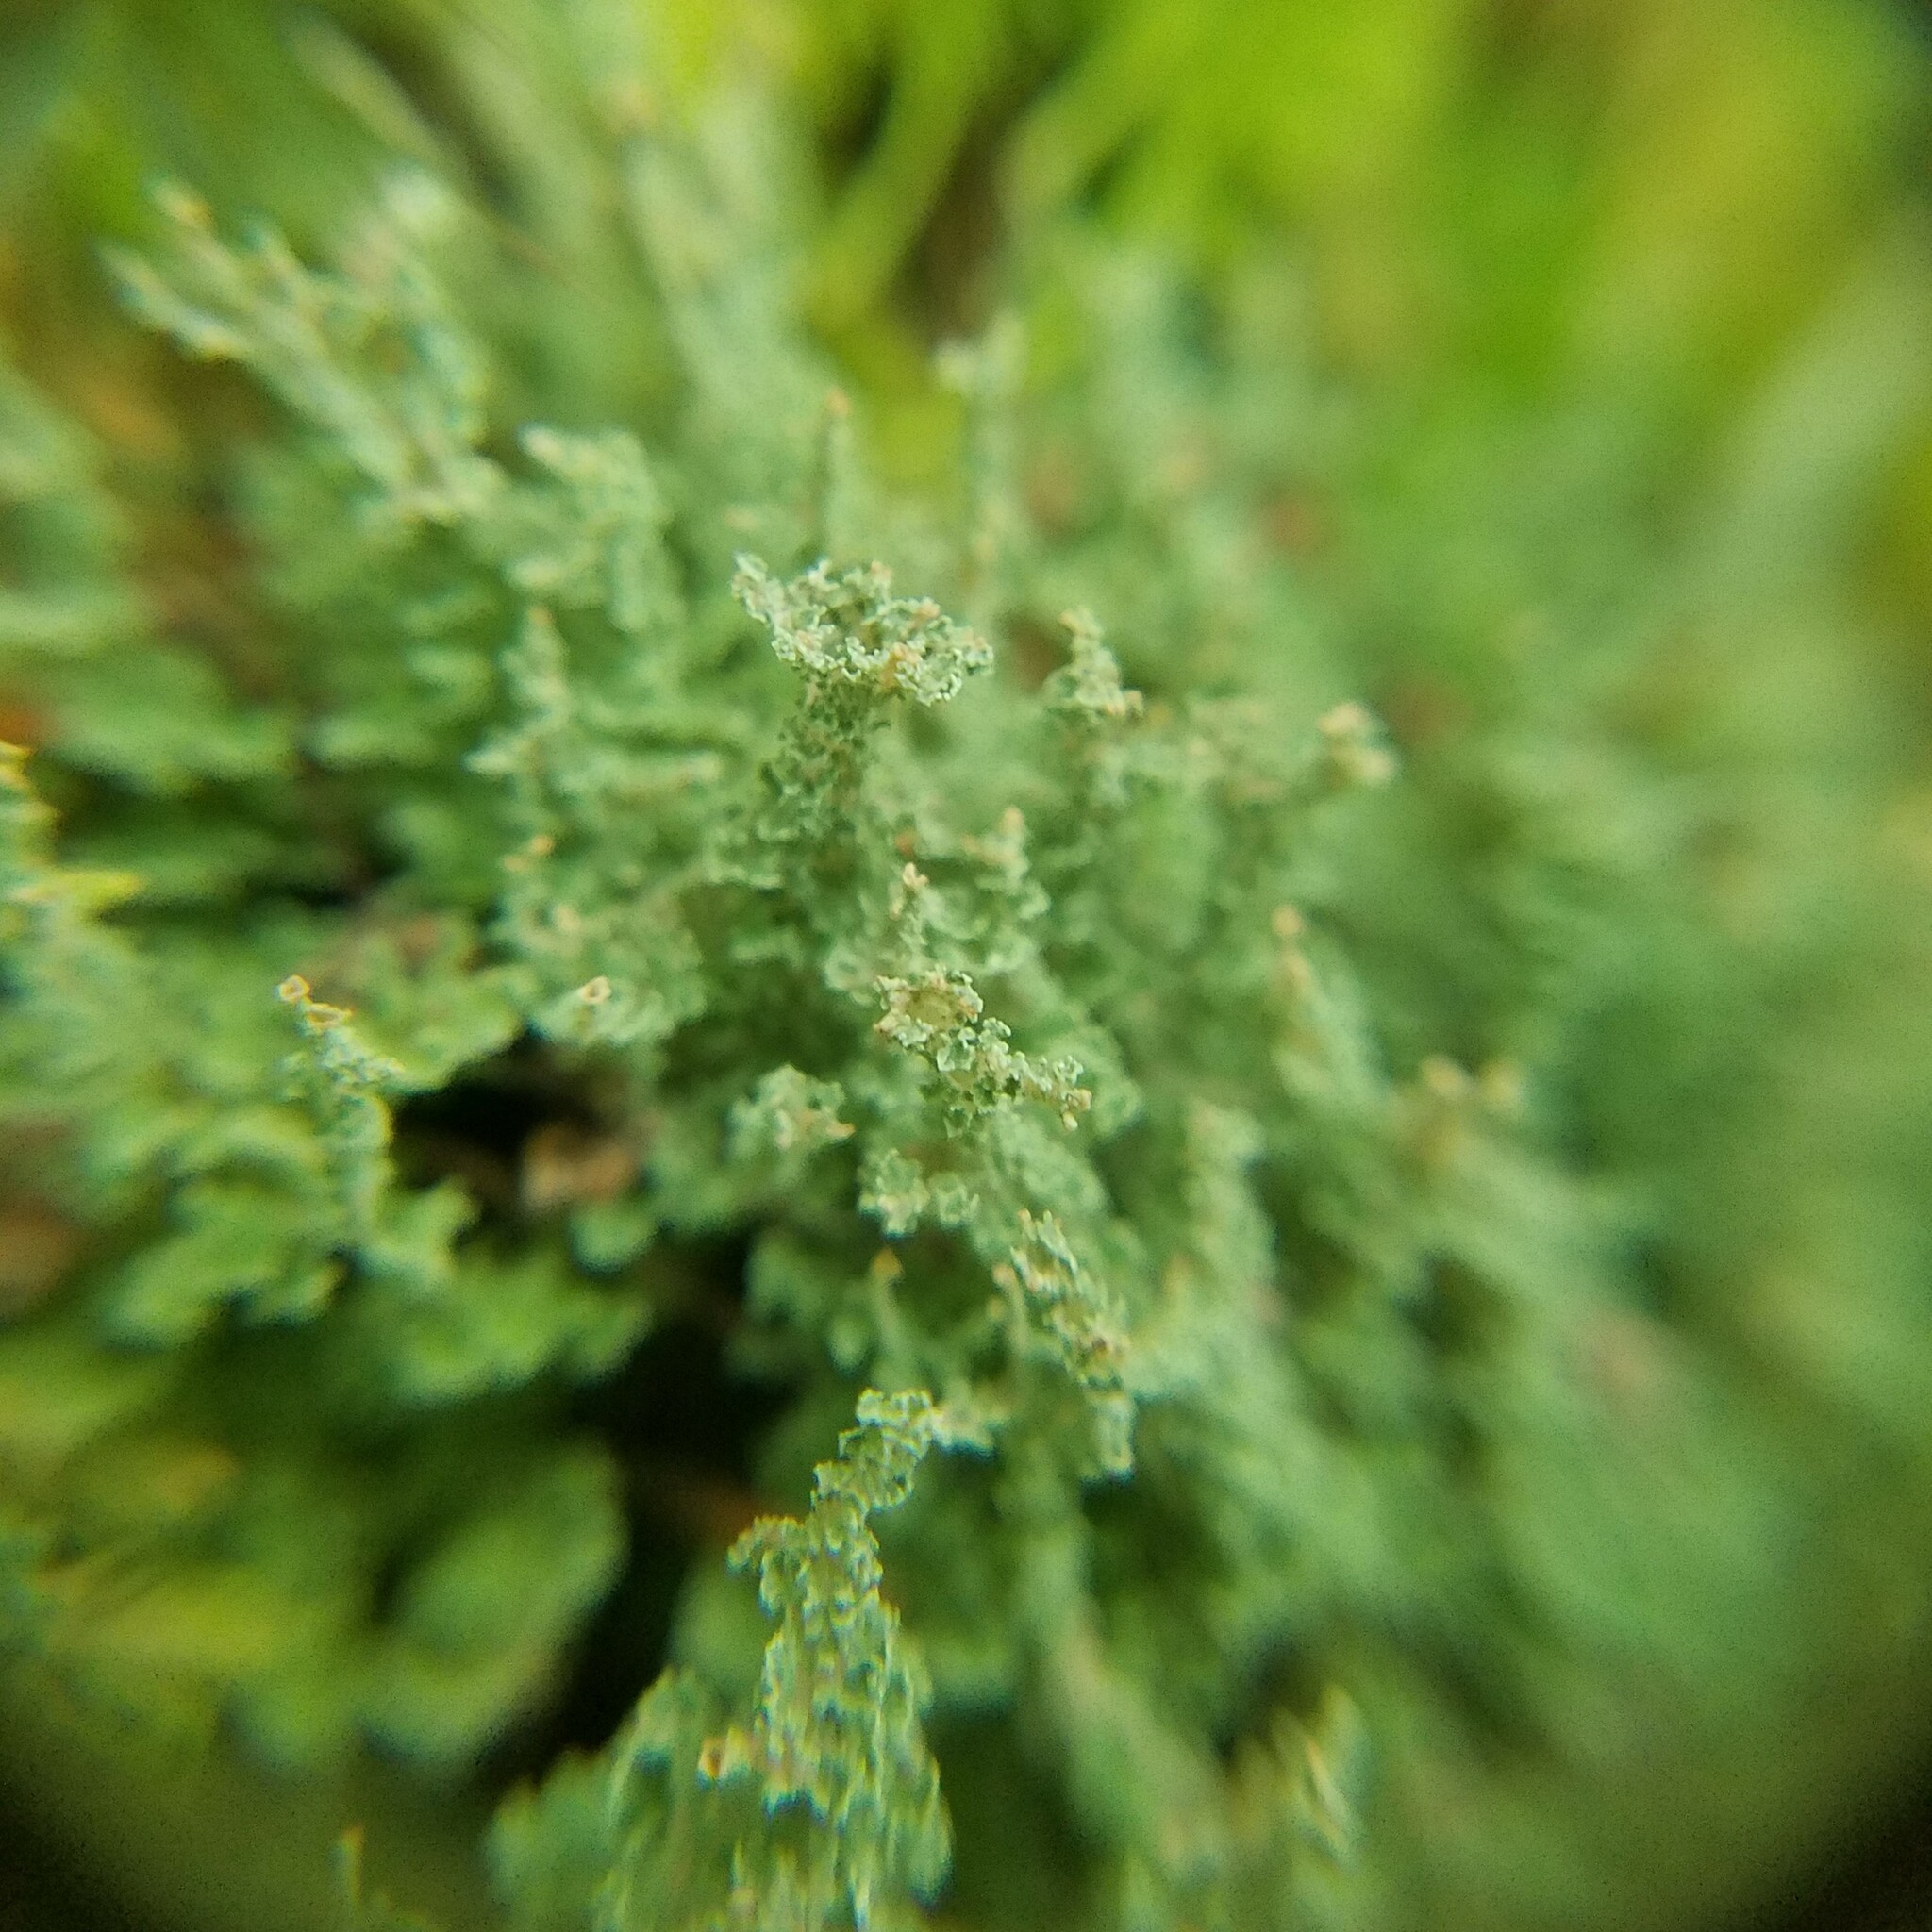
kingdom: Fungi
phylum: Ascomycota
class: Lecanoromycetes
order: Lecanorales
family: Cladoniaceae
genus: Cladonia
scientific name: Cladonia squamosa
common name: Dragon horn
